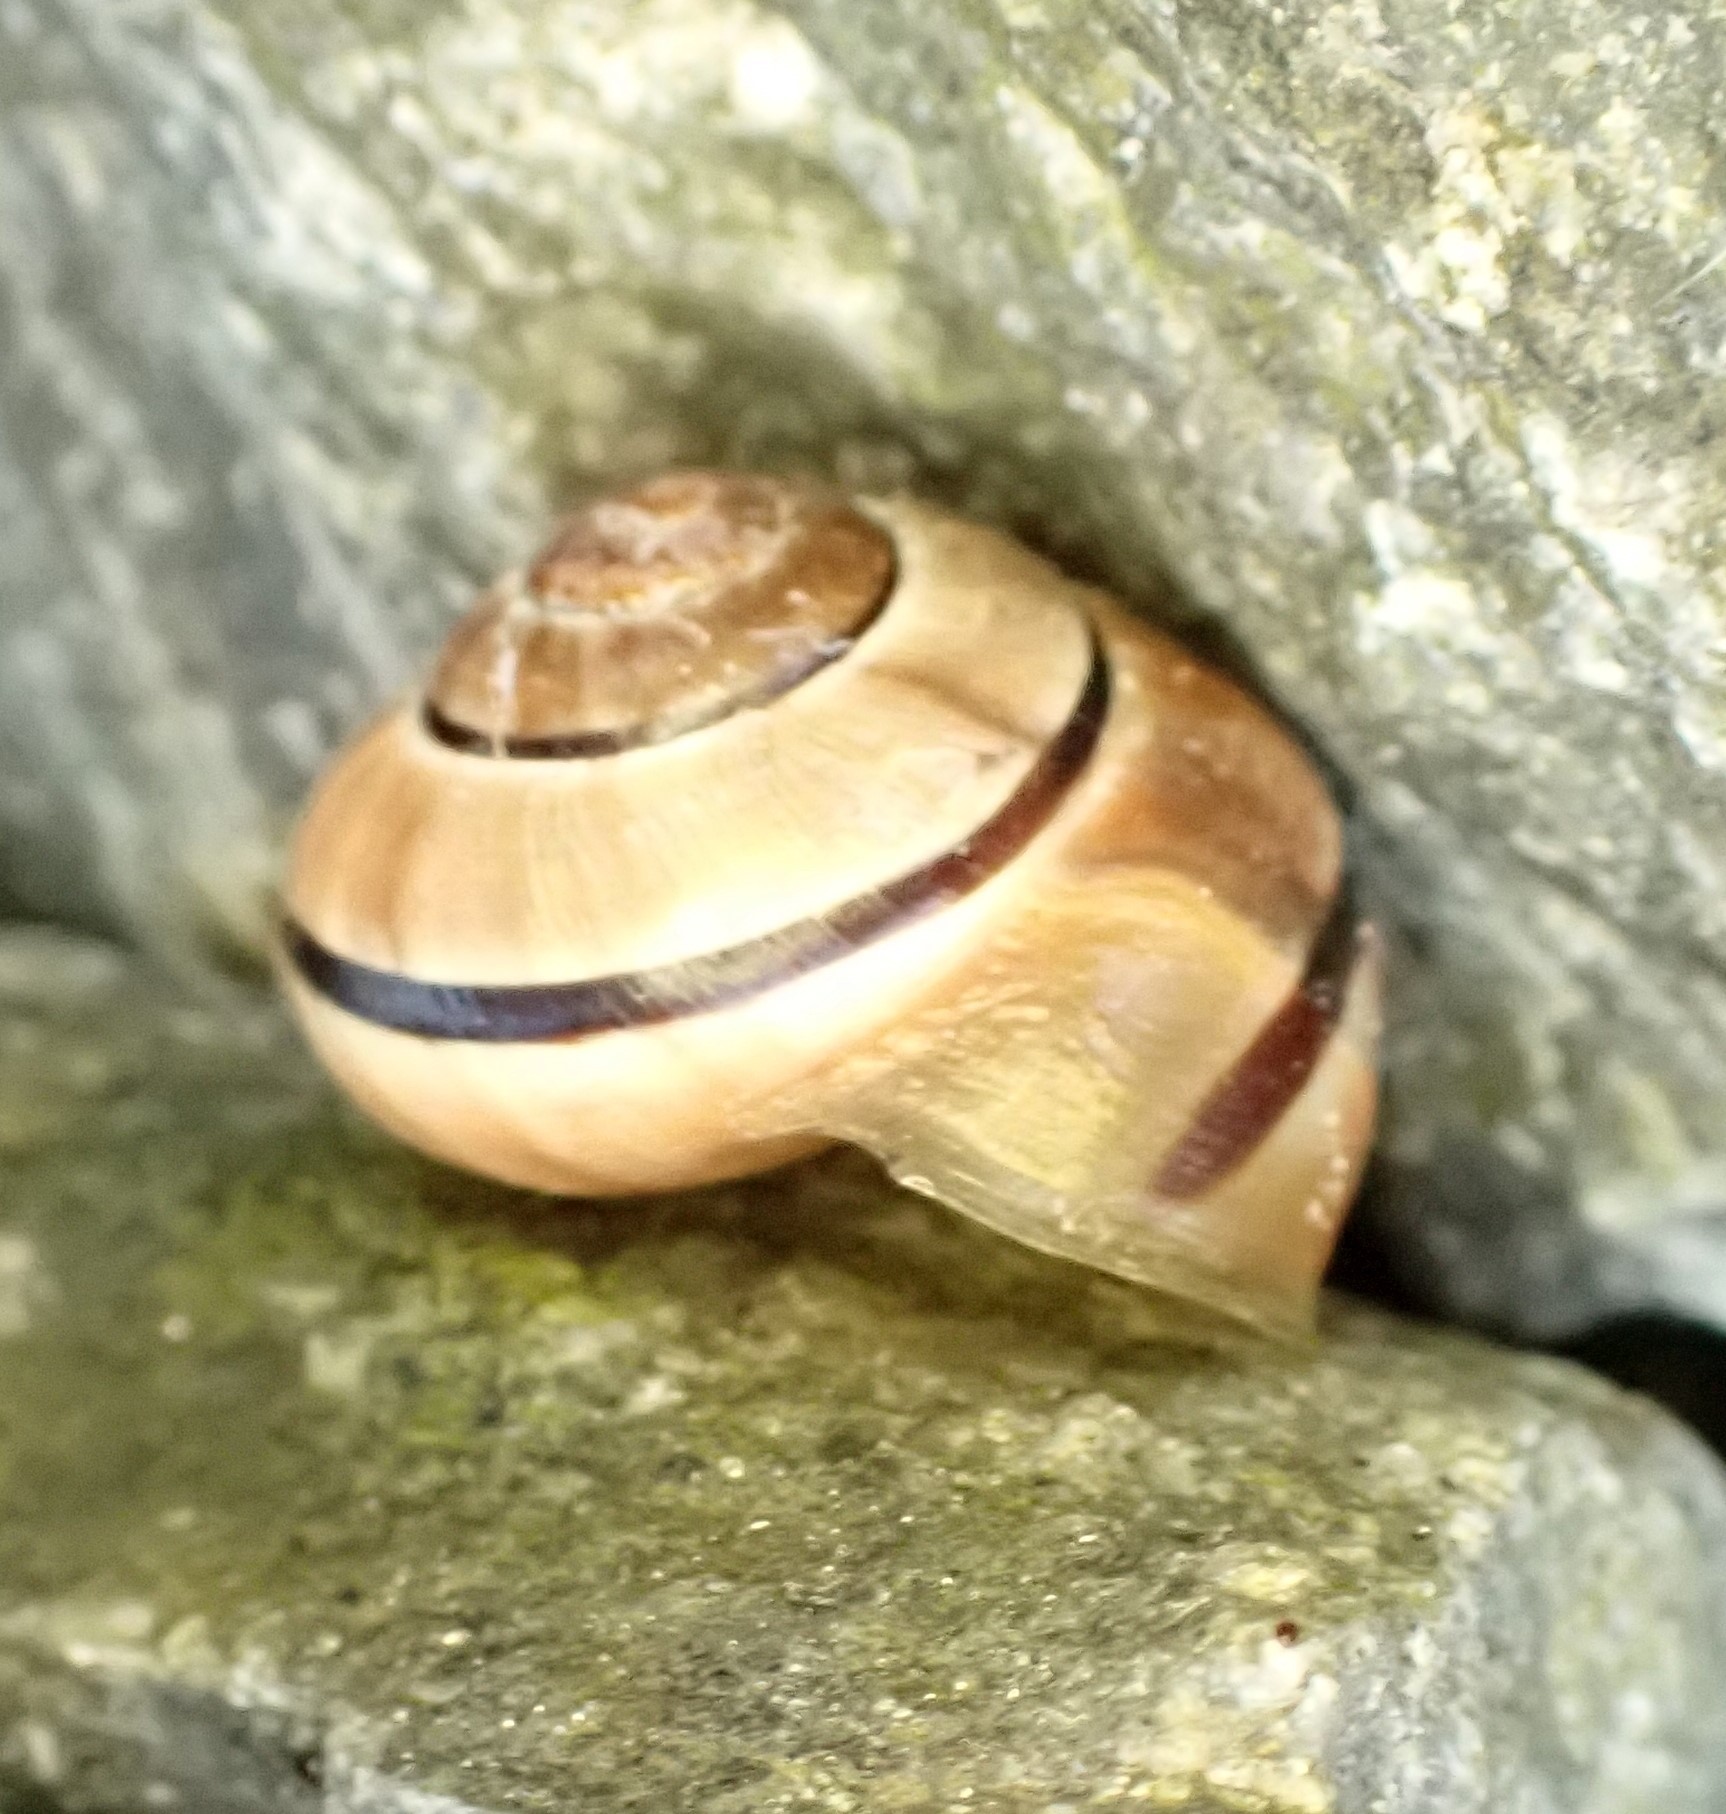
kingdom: Animalia
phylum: Mollusca
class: Gastropoda
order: Stylommatophora
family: Helicidae
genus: Cepaea
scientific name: Cepaea nemoralis
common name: Grovesnail
